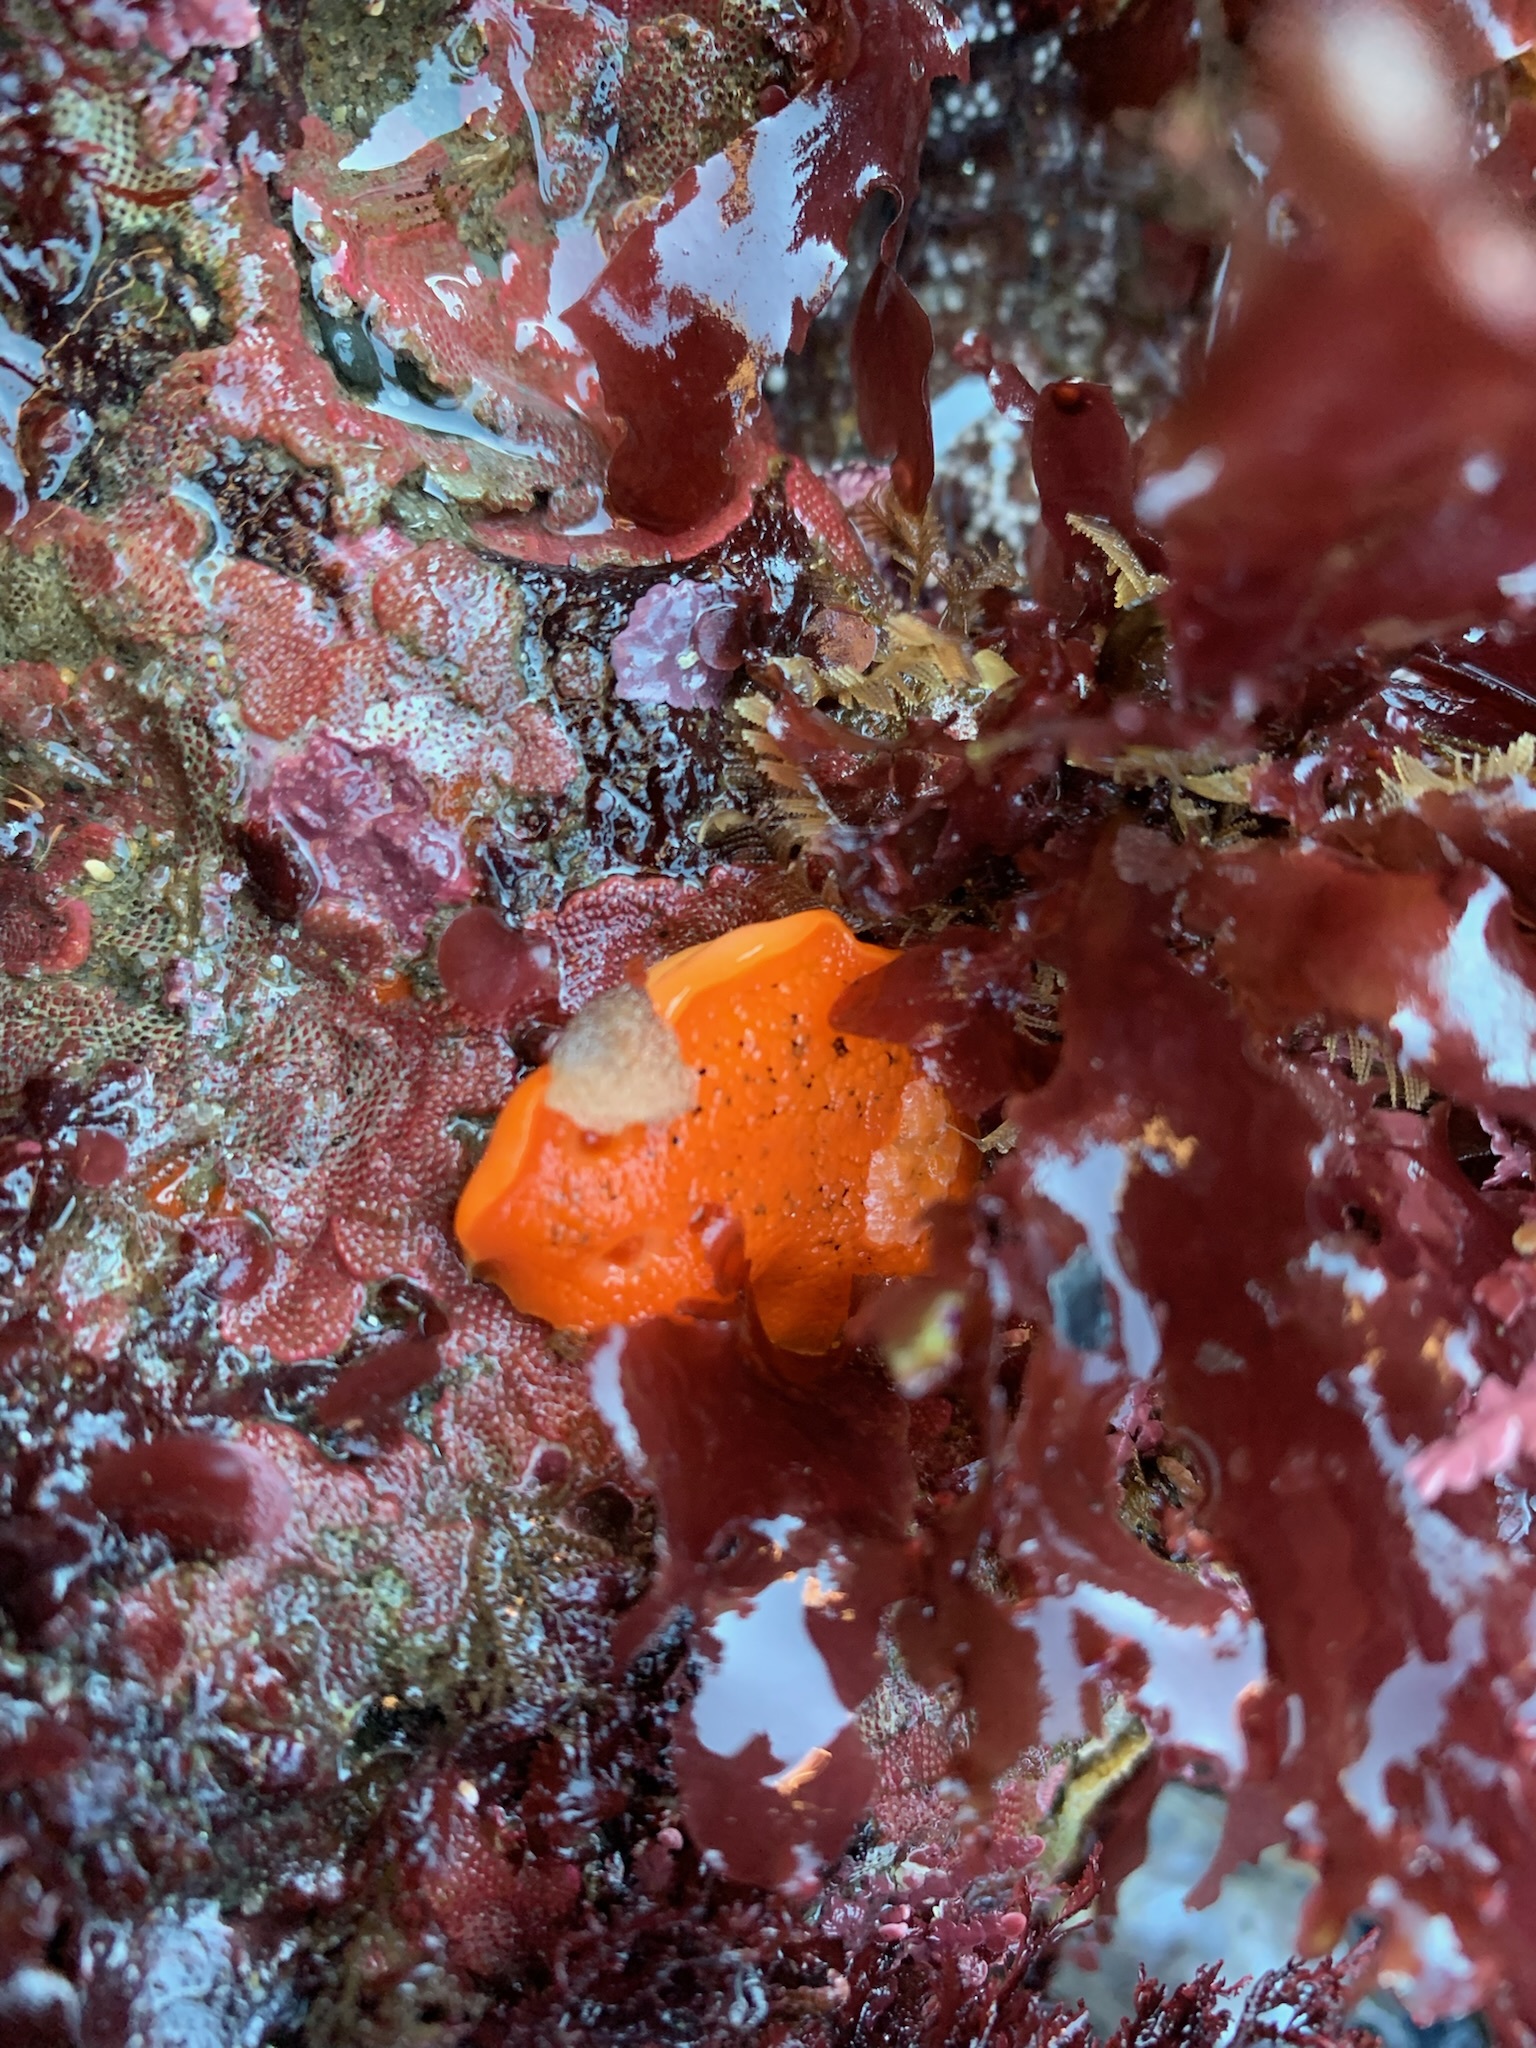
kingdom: Animalia
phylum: Mollusca
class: Gastropoda
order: Nudibranchia
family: Discodorididae
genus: Peltodoris
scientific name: Peltodoris nobilis
